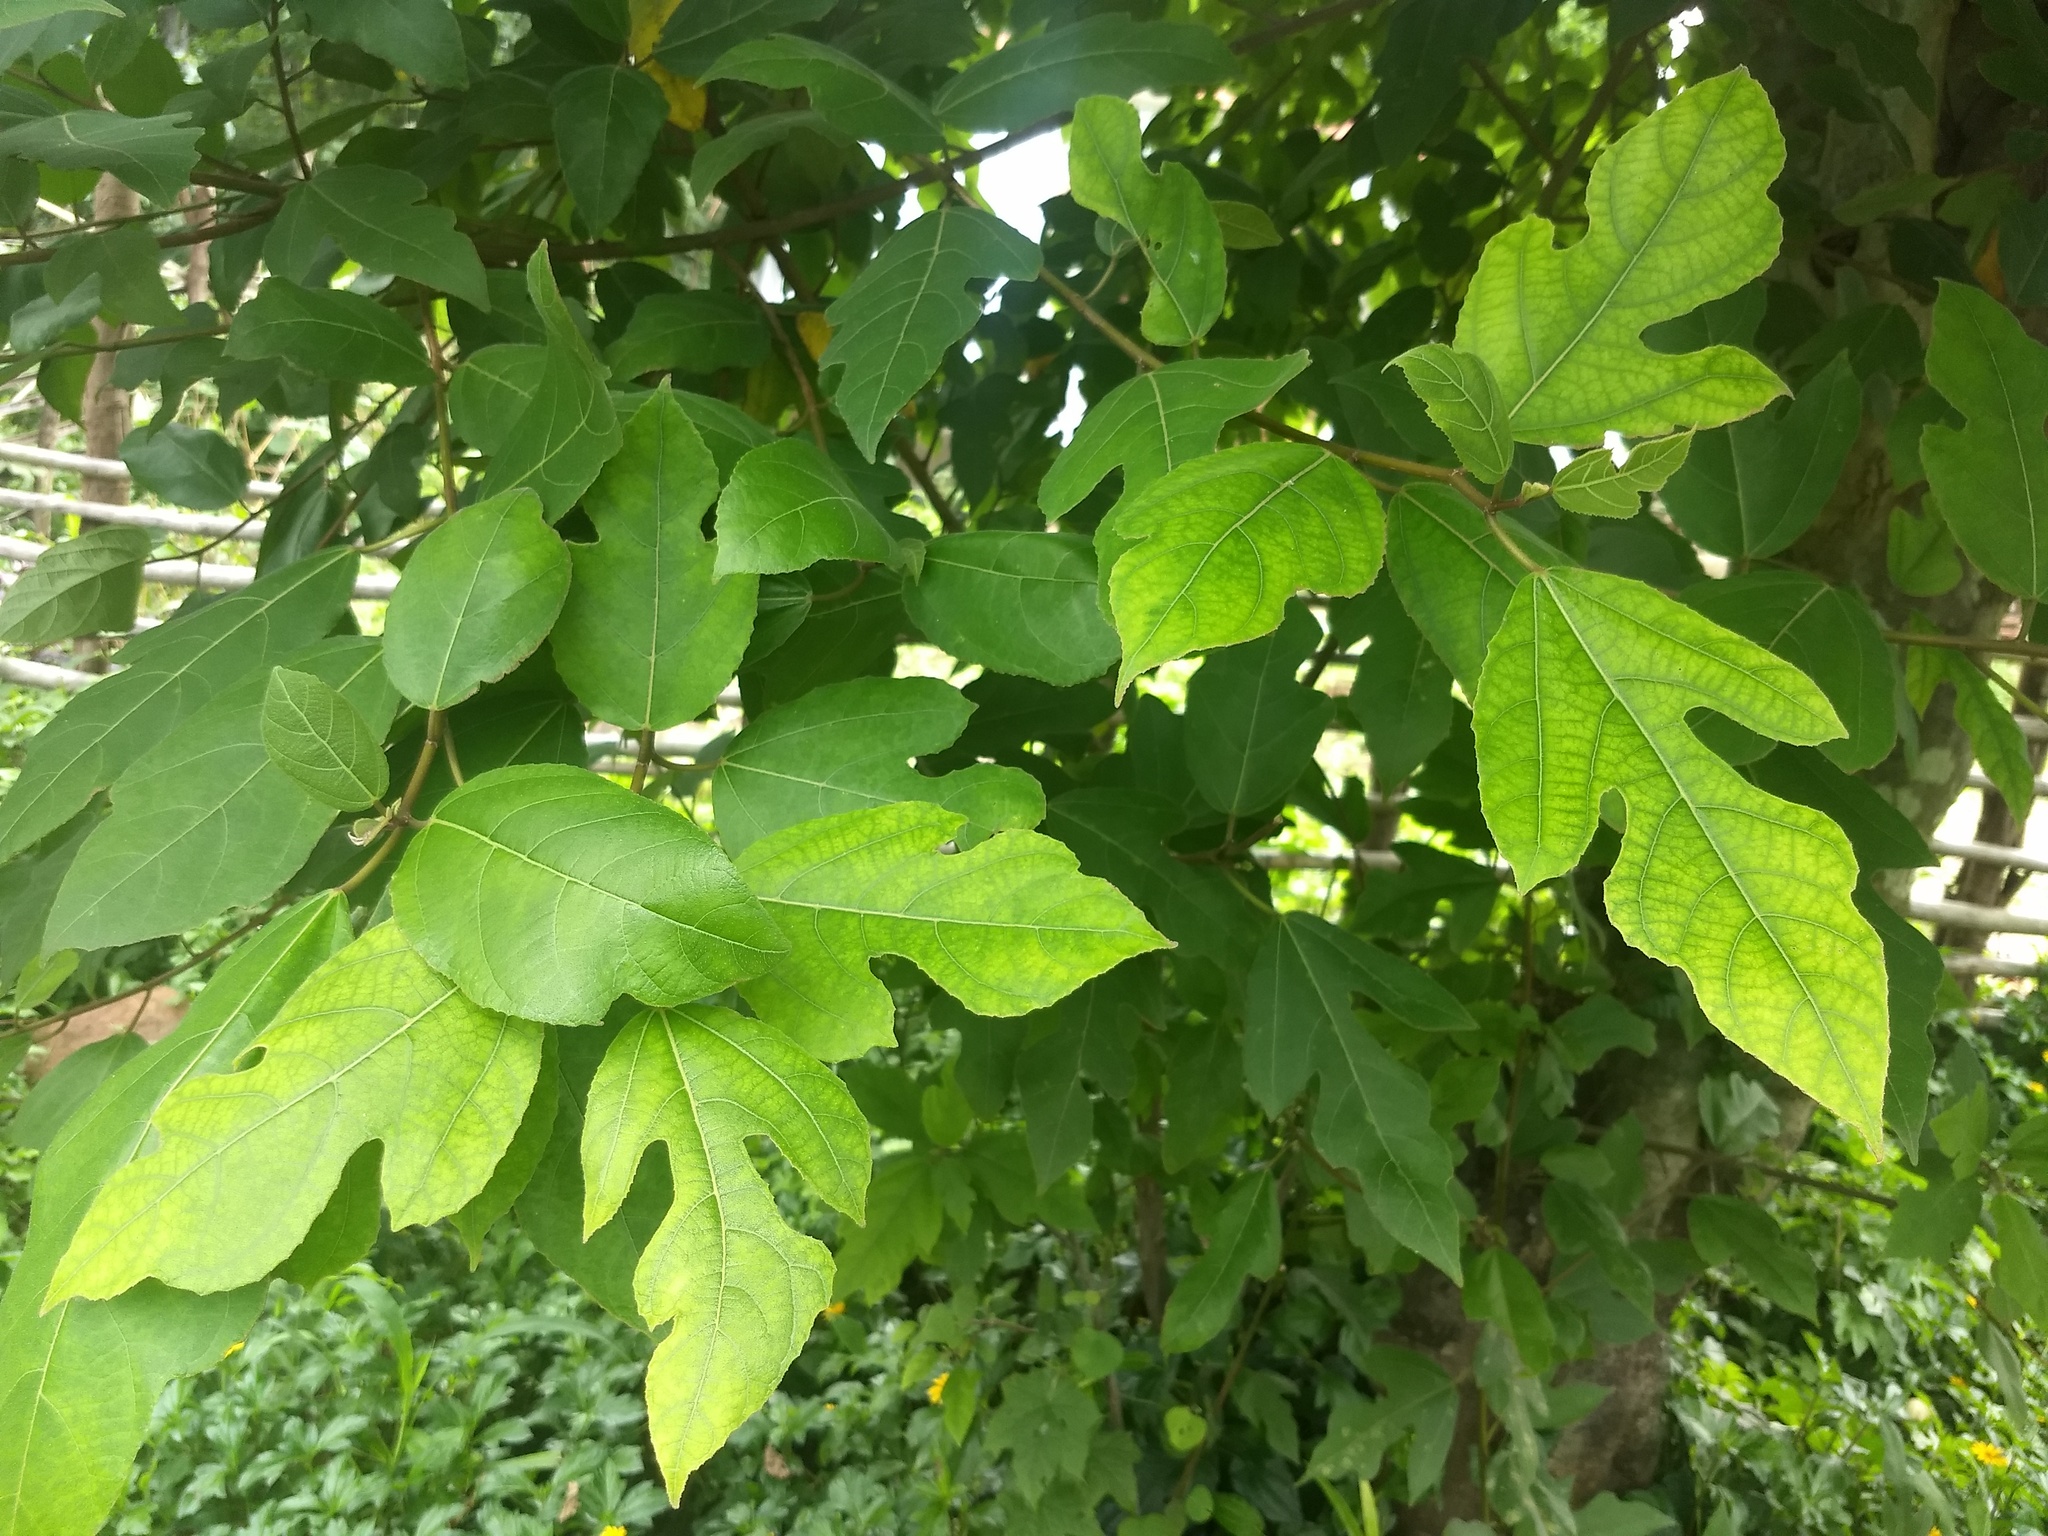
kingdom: Plantae
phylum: Tracheophyta
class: Magnoliopsida
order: Rosales
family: Moraceae
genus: Ficus
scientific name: Ficus exasperata
